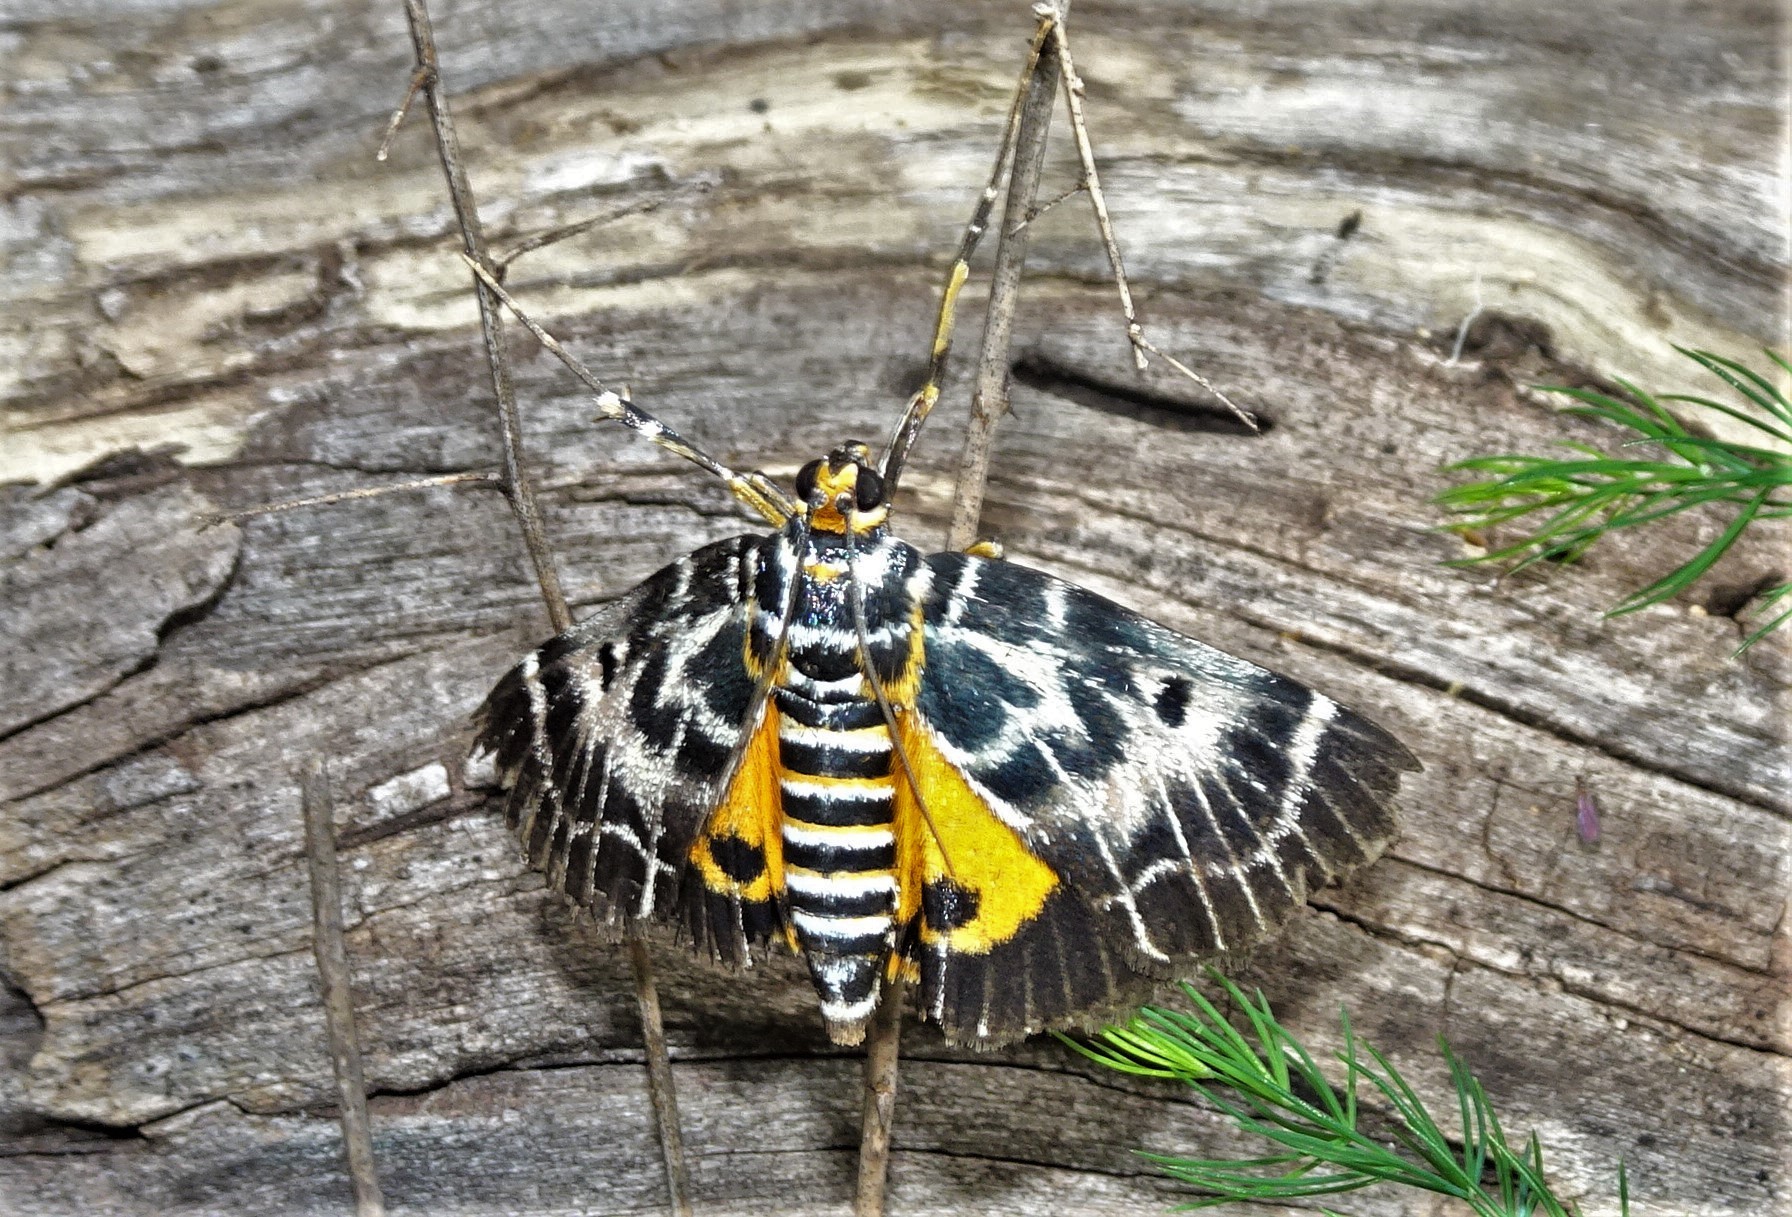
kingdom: Animalia
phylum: Arthropoda
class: Insecta
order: Lepidoptera
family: Pyralidae
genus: Cardamyla
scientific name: Cardamyla carinentalis
